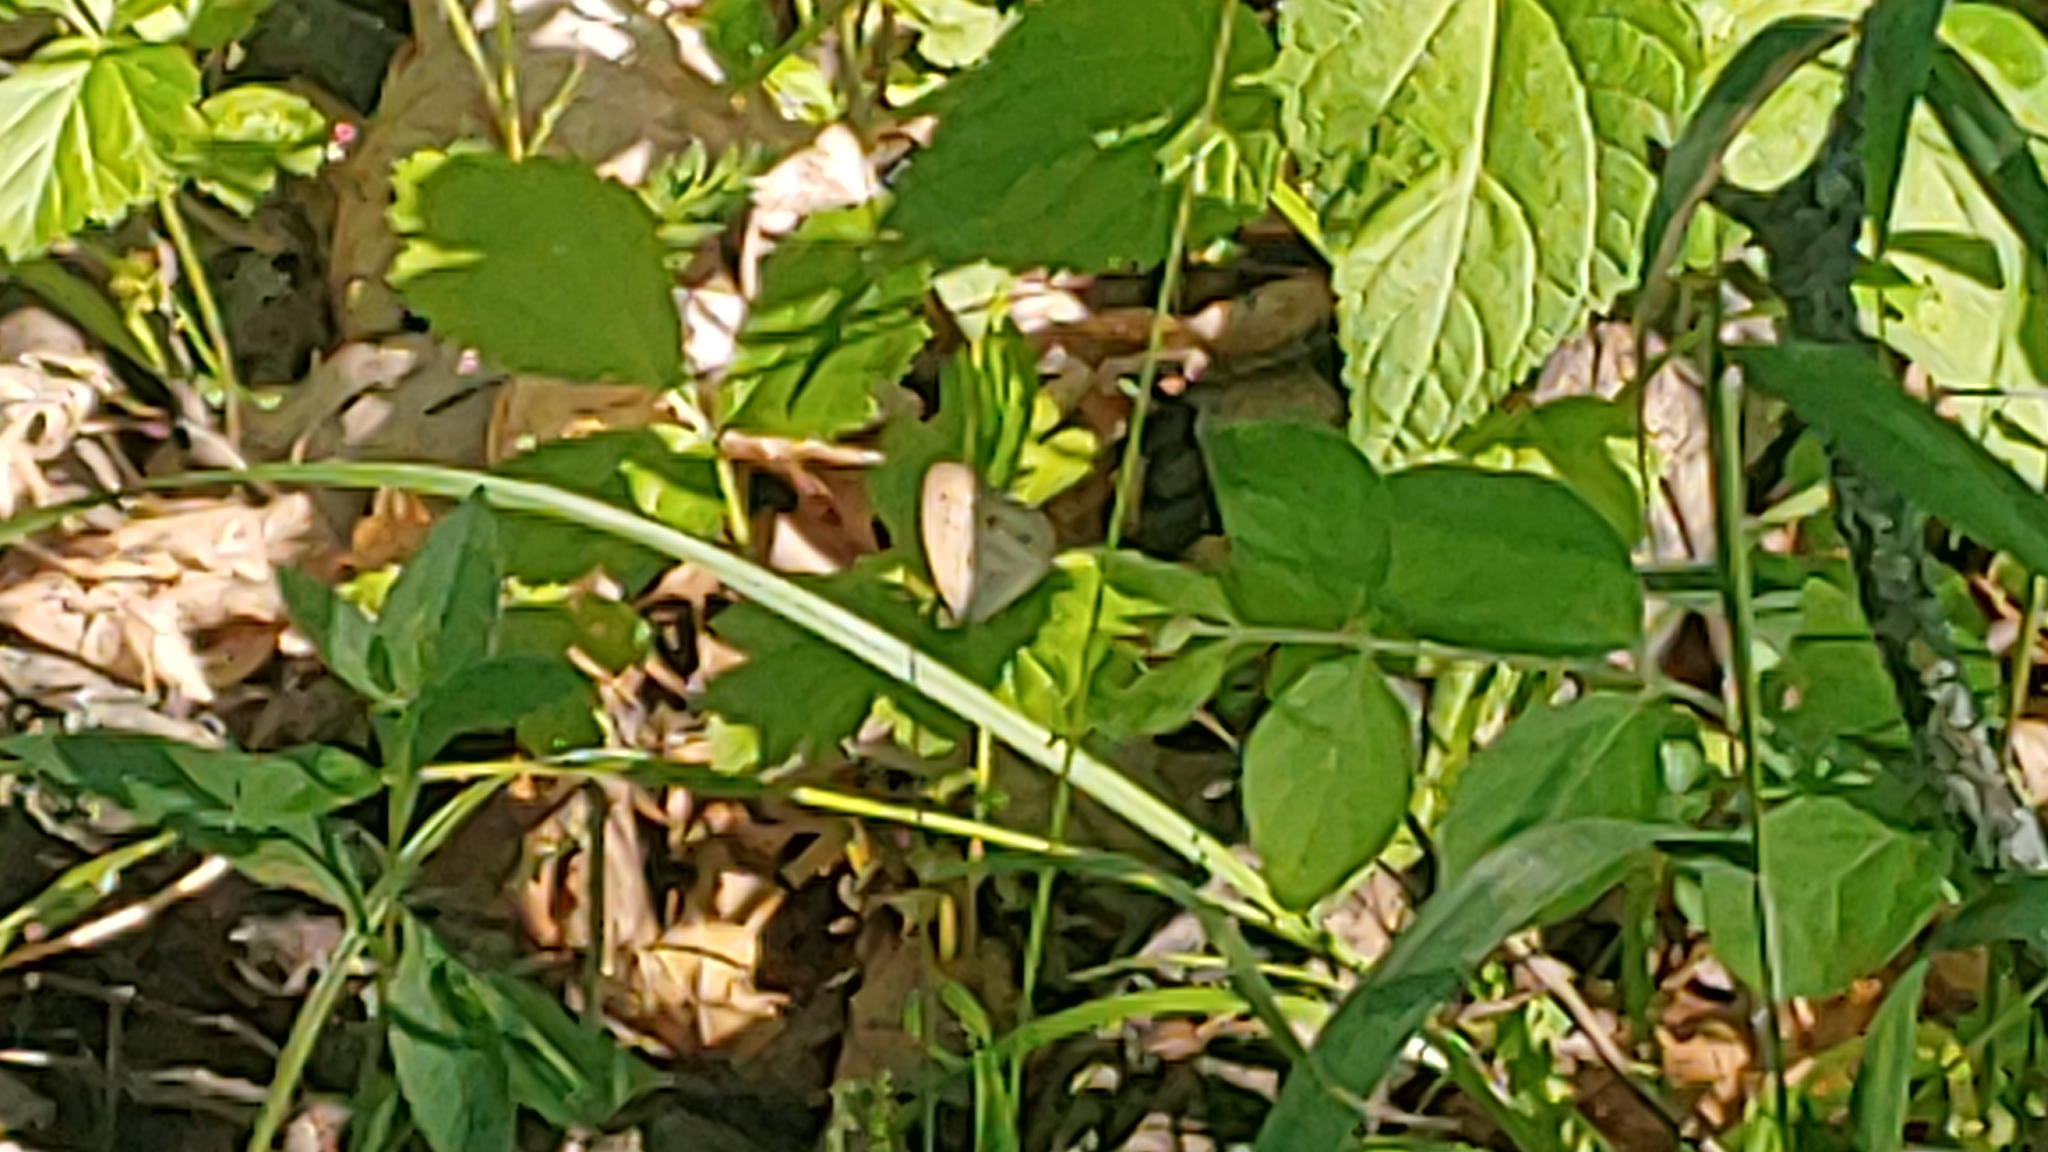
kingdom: Animalia
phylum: Arthropoda
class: Insecta
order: Lepidoptera
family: Nymphalidae
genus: Euptychia
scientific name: Euptychia cymela
